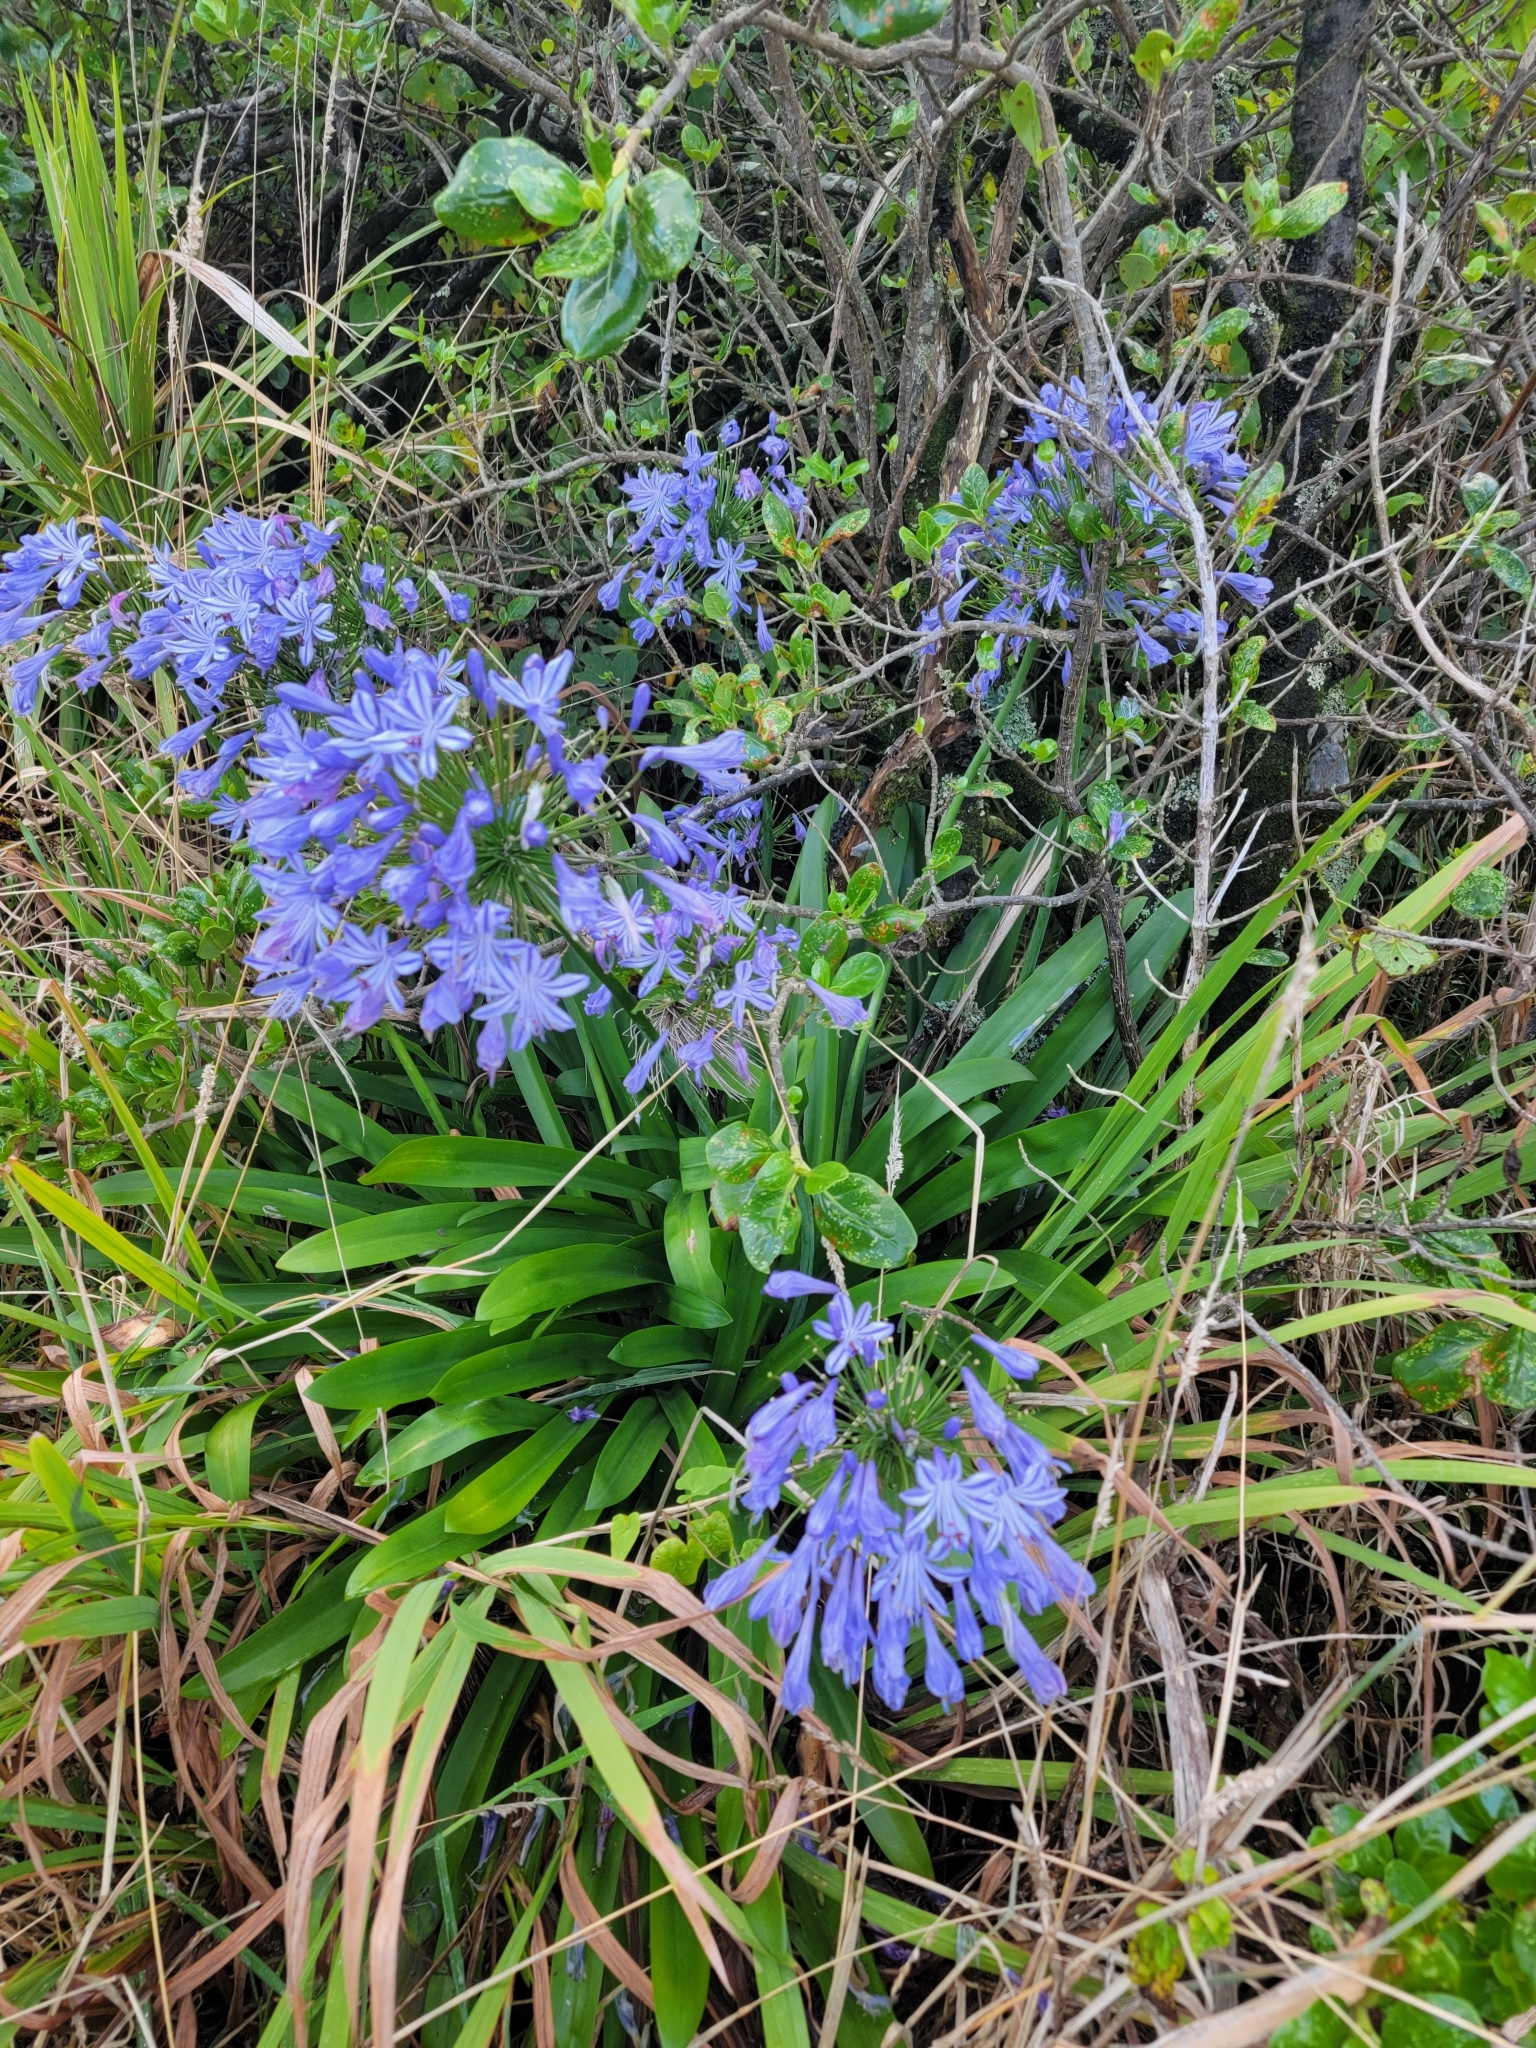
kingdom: Plantae
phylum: Tracheophyta
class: Liliopsida
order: Asparagales
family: Amaryllidaceae
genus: Agapanthus
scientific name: Agapanthus praecox
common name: African-lily
